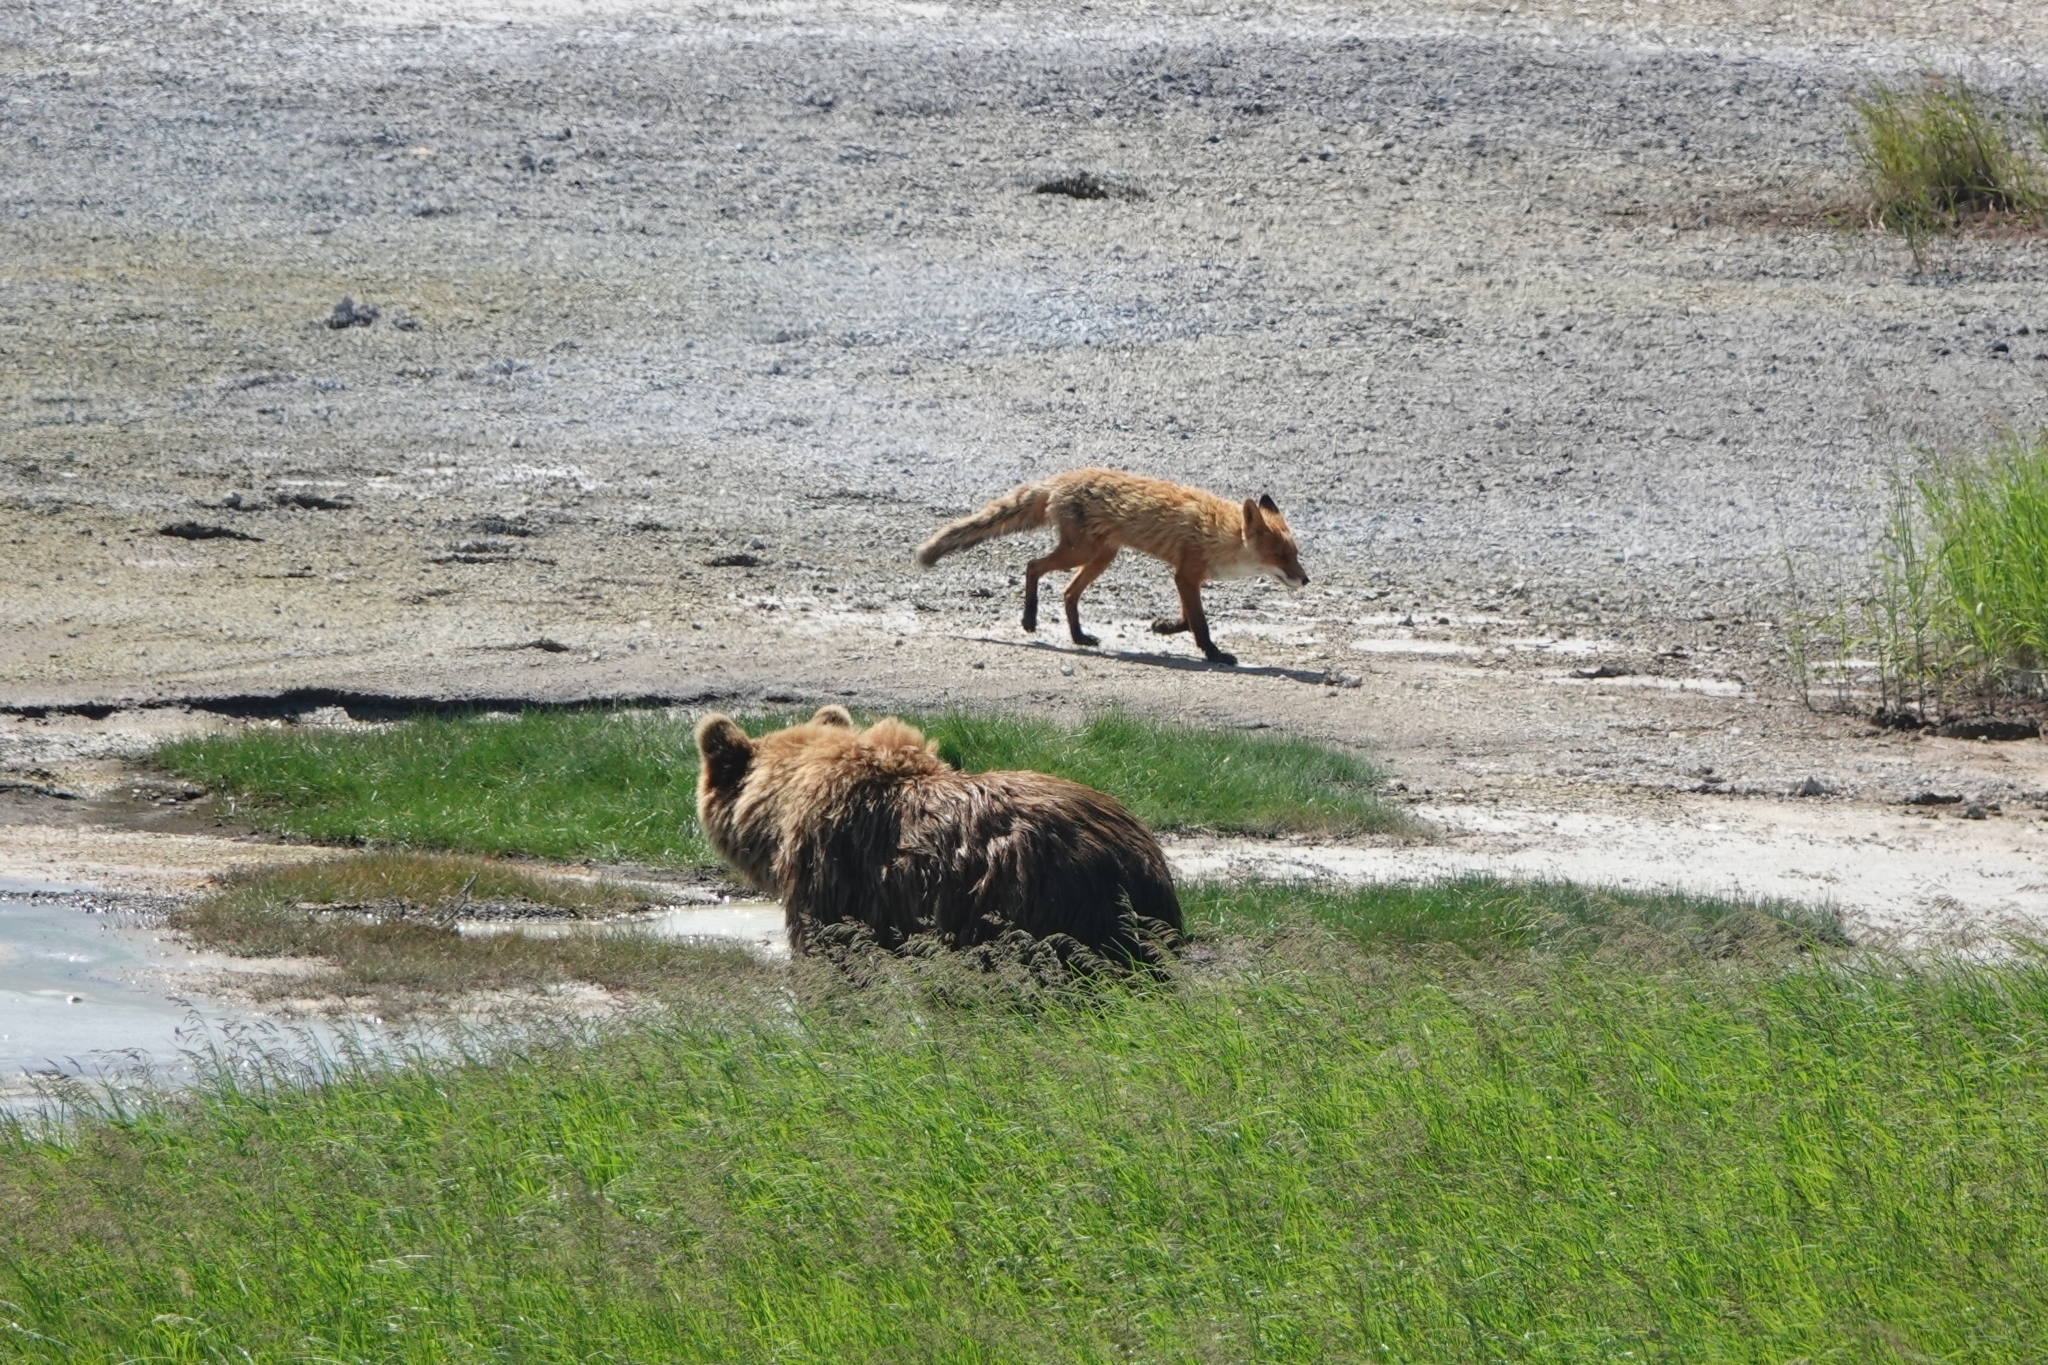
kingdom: Animalia
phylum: Chordata
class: Mammalia
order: Carnivora
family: Canidae
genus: Vulpes
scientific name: Vulpes vulpes
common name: Red fox
